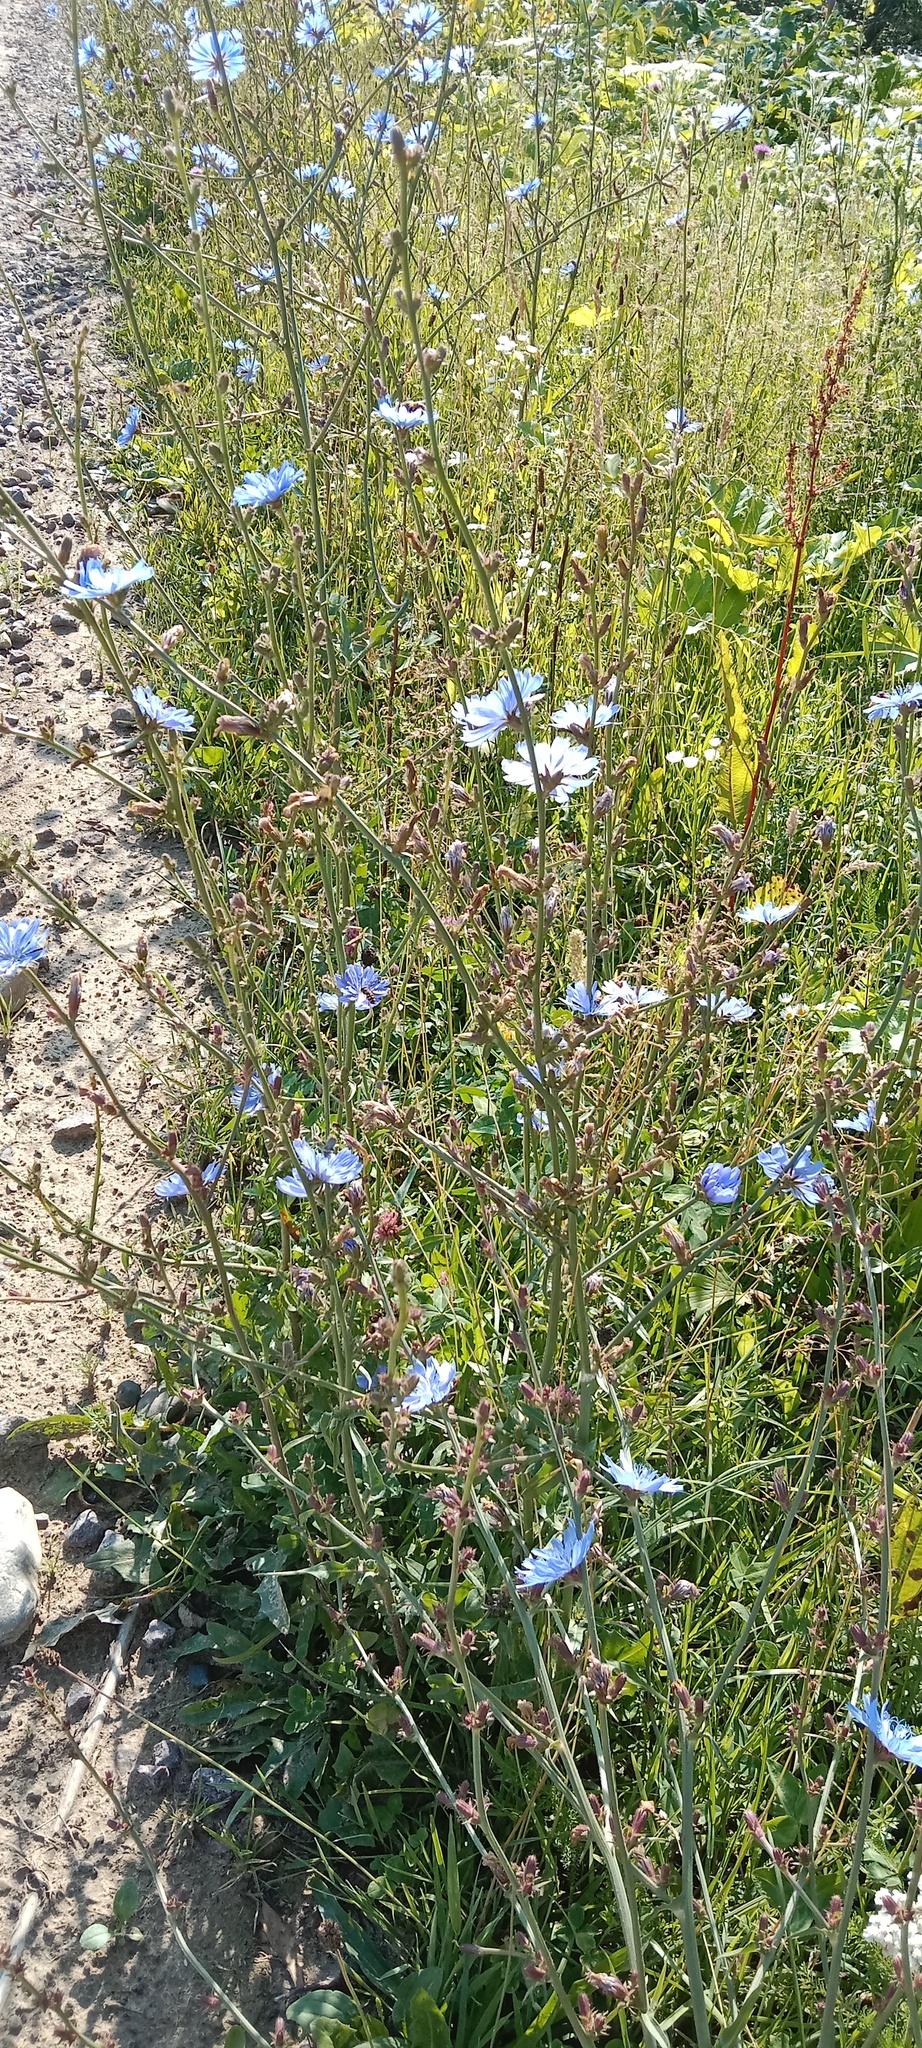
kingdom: Plantae
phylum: Tracheophyta
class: Magnoliopsida
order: Asterales
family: Asteraceae
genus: Cichorium
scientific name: Cichorium intybus
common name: Chicory
